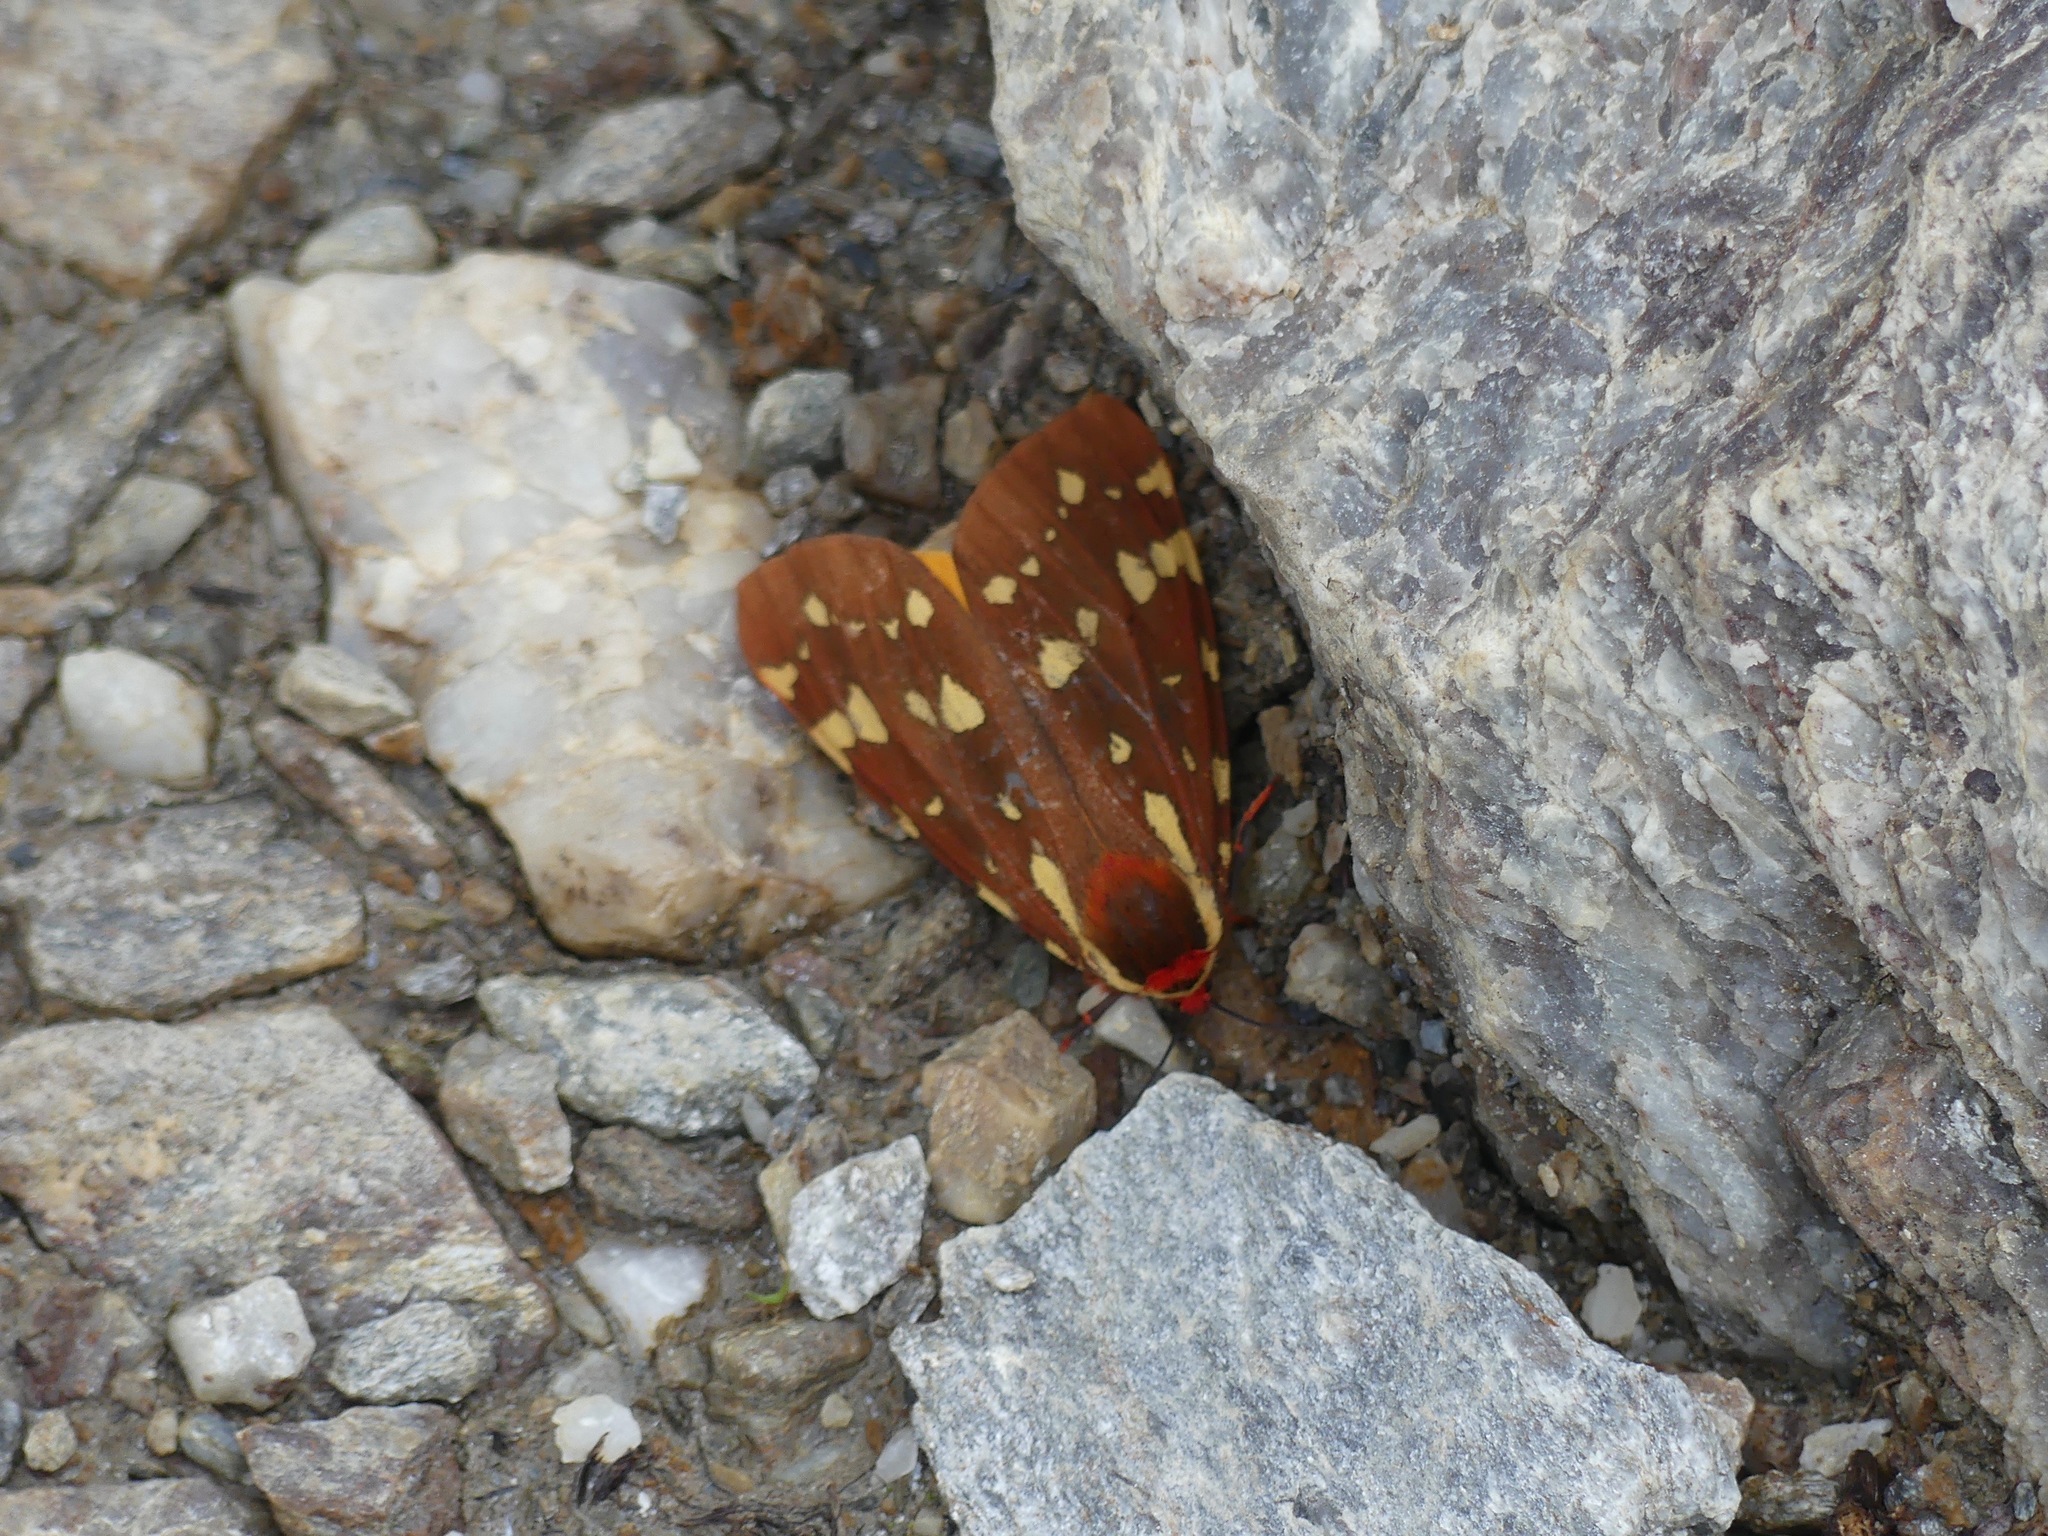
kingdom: Animalia
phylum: Arthropoda
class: Insecta
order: Lepidoptera
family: Erebidae
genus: Arctia
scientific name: Arctia parthenos
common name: St. lawrence tiger moth
